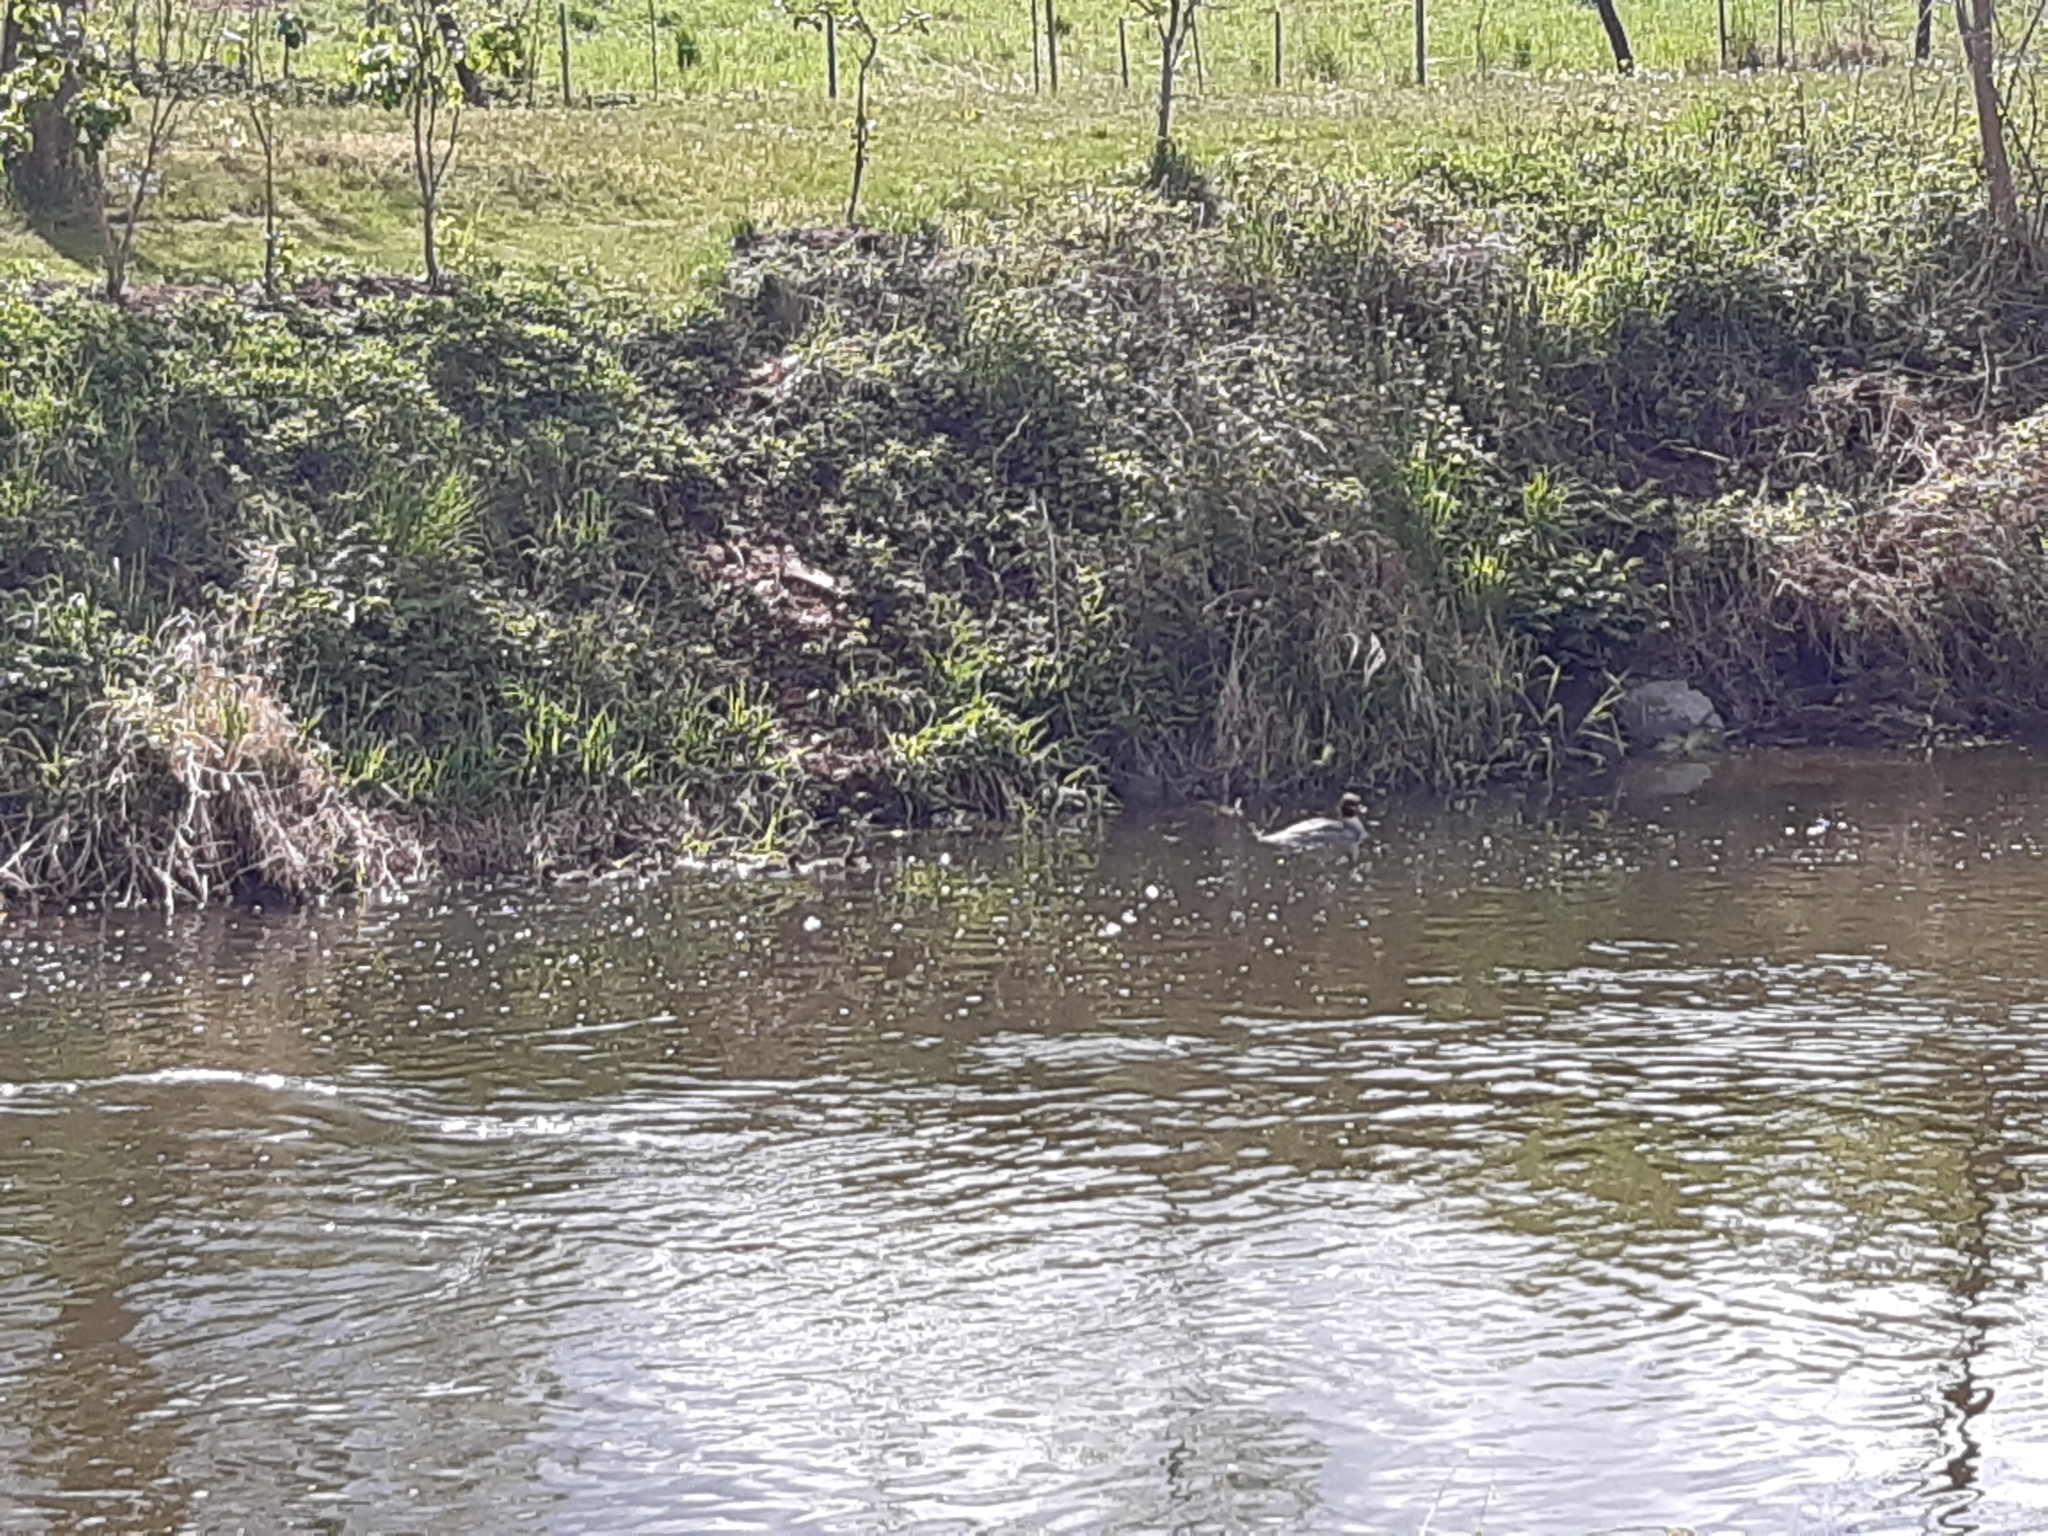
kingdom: Animalia
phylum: Chordata
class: Aves
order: Anseriformes
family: Anatidae
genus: Mergus
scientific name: Mergus merganser
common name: Common merganser
